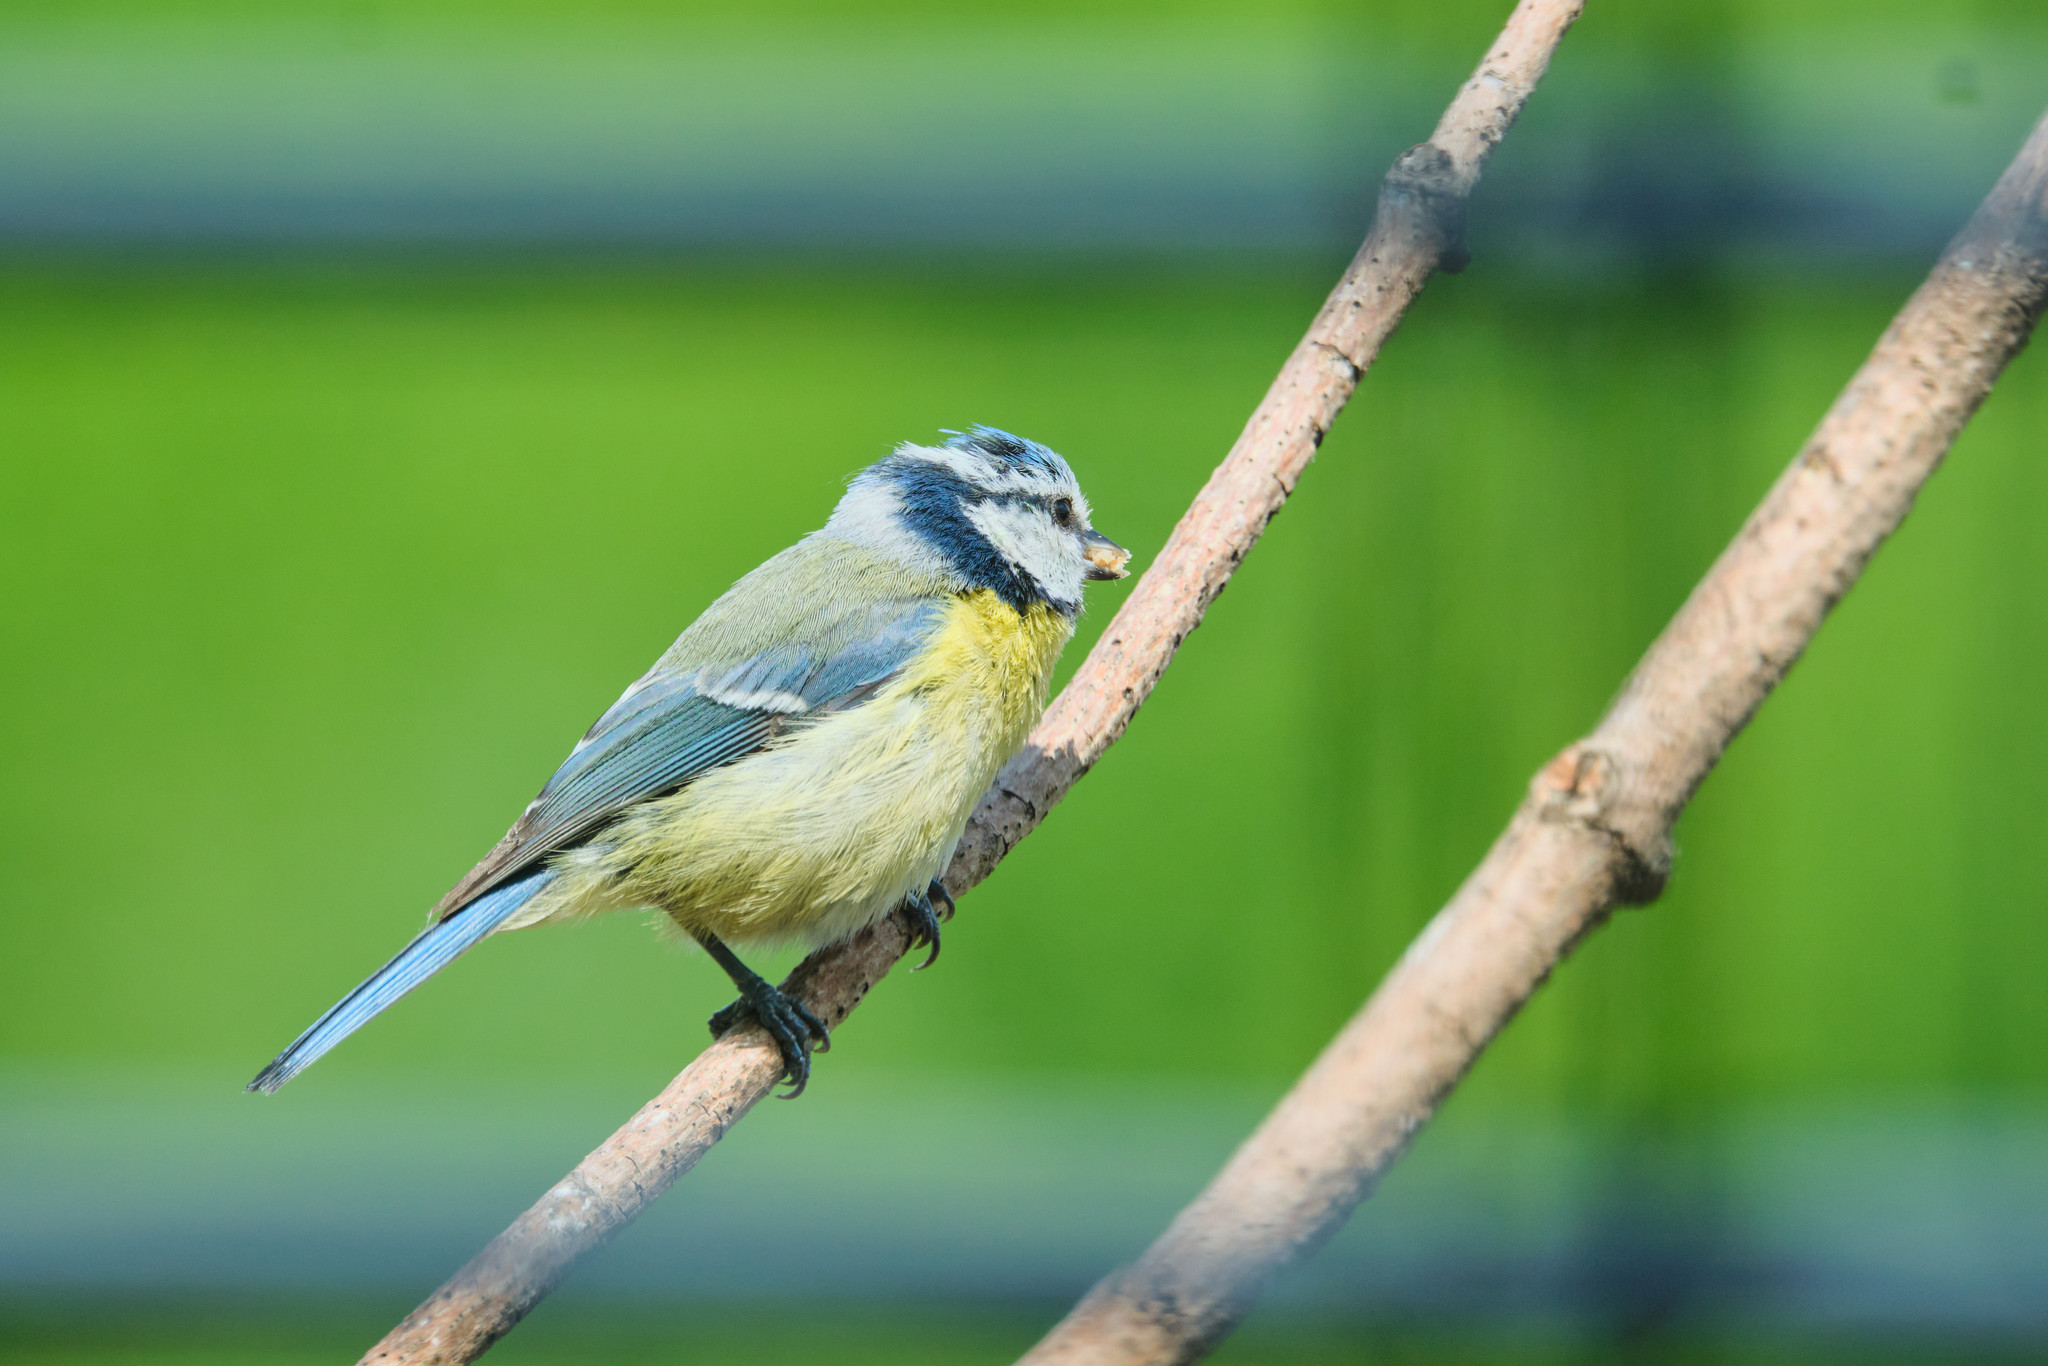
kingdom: Animalia
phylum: Chordata
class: Aves
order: Passeriformes
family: Paridae
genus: Cyanistes
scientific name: Cyanistes caeruleus
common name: Eurasian blue tit
